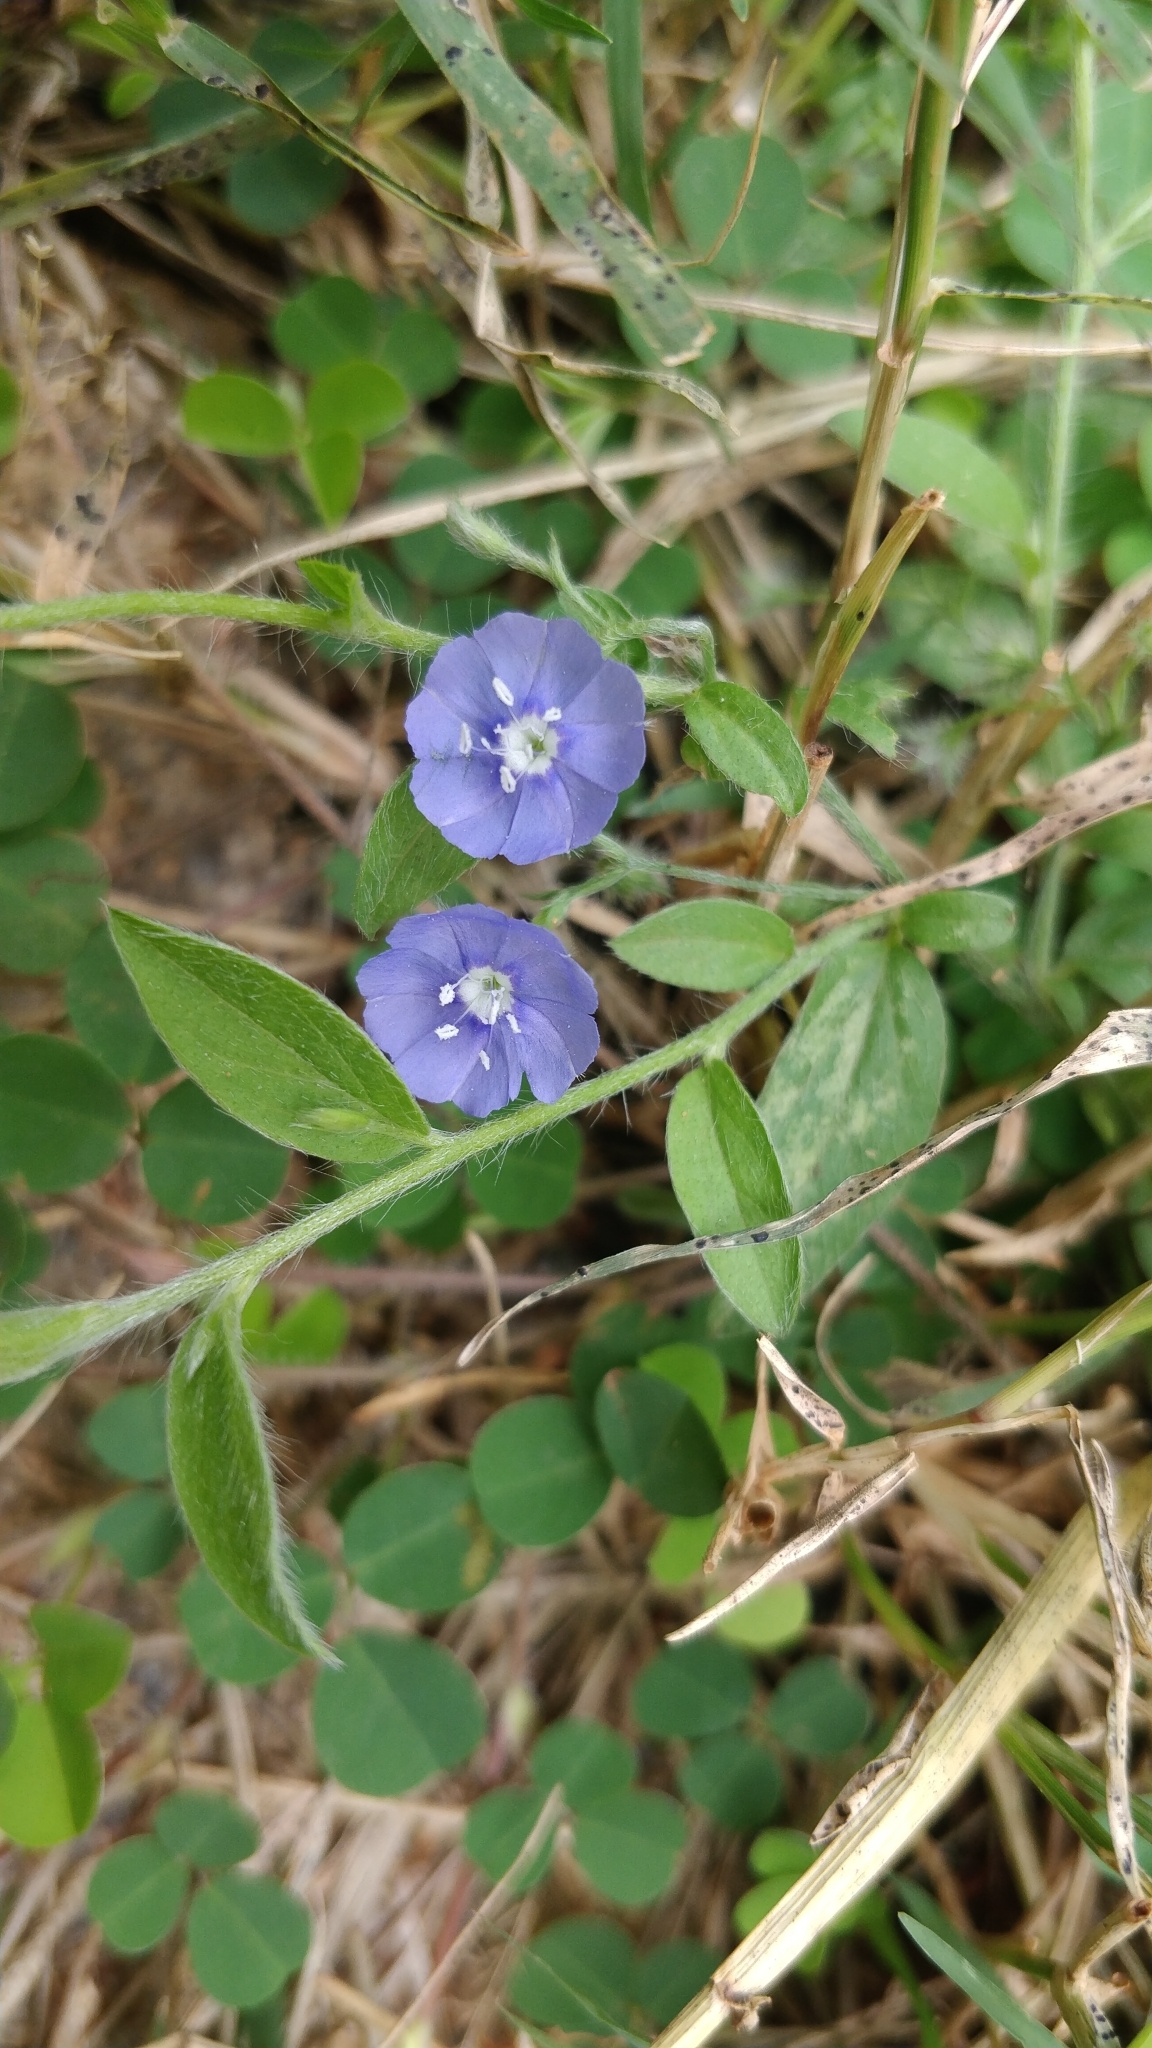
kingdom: Plantae
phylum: Tracheophyta
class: Magnoliopsida
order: Solanales
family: Convolvulaceae
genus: Evolvulus
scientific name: Evolvulus alsinoides
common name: Slender dwarf morning-glory
